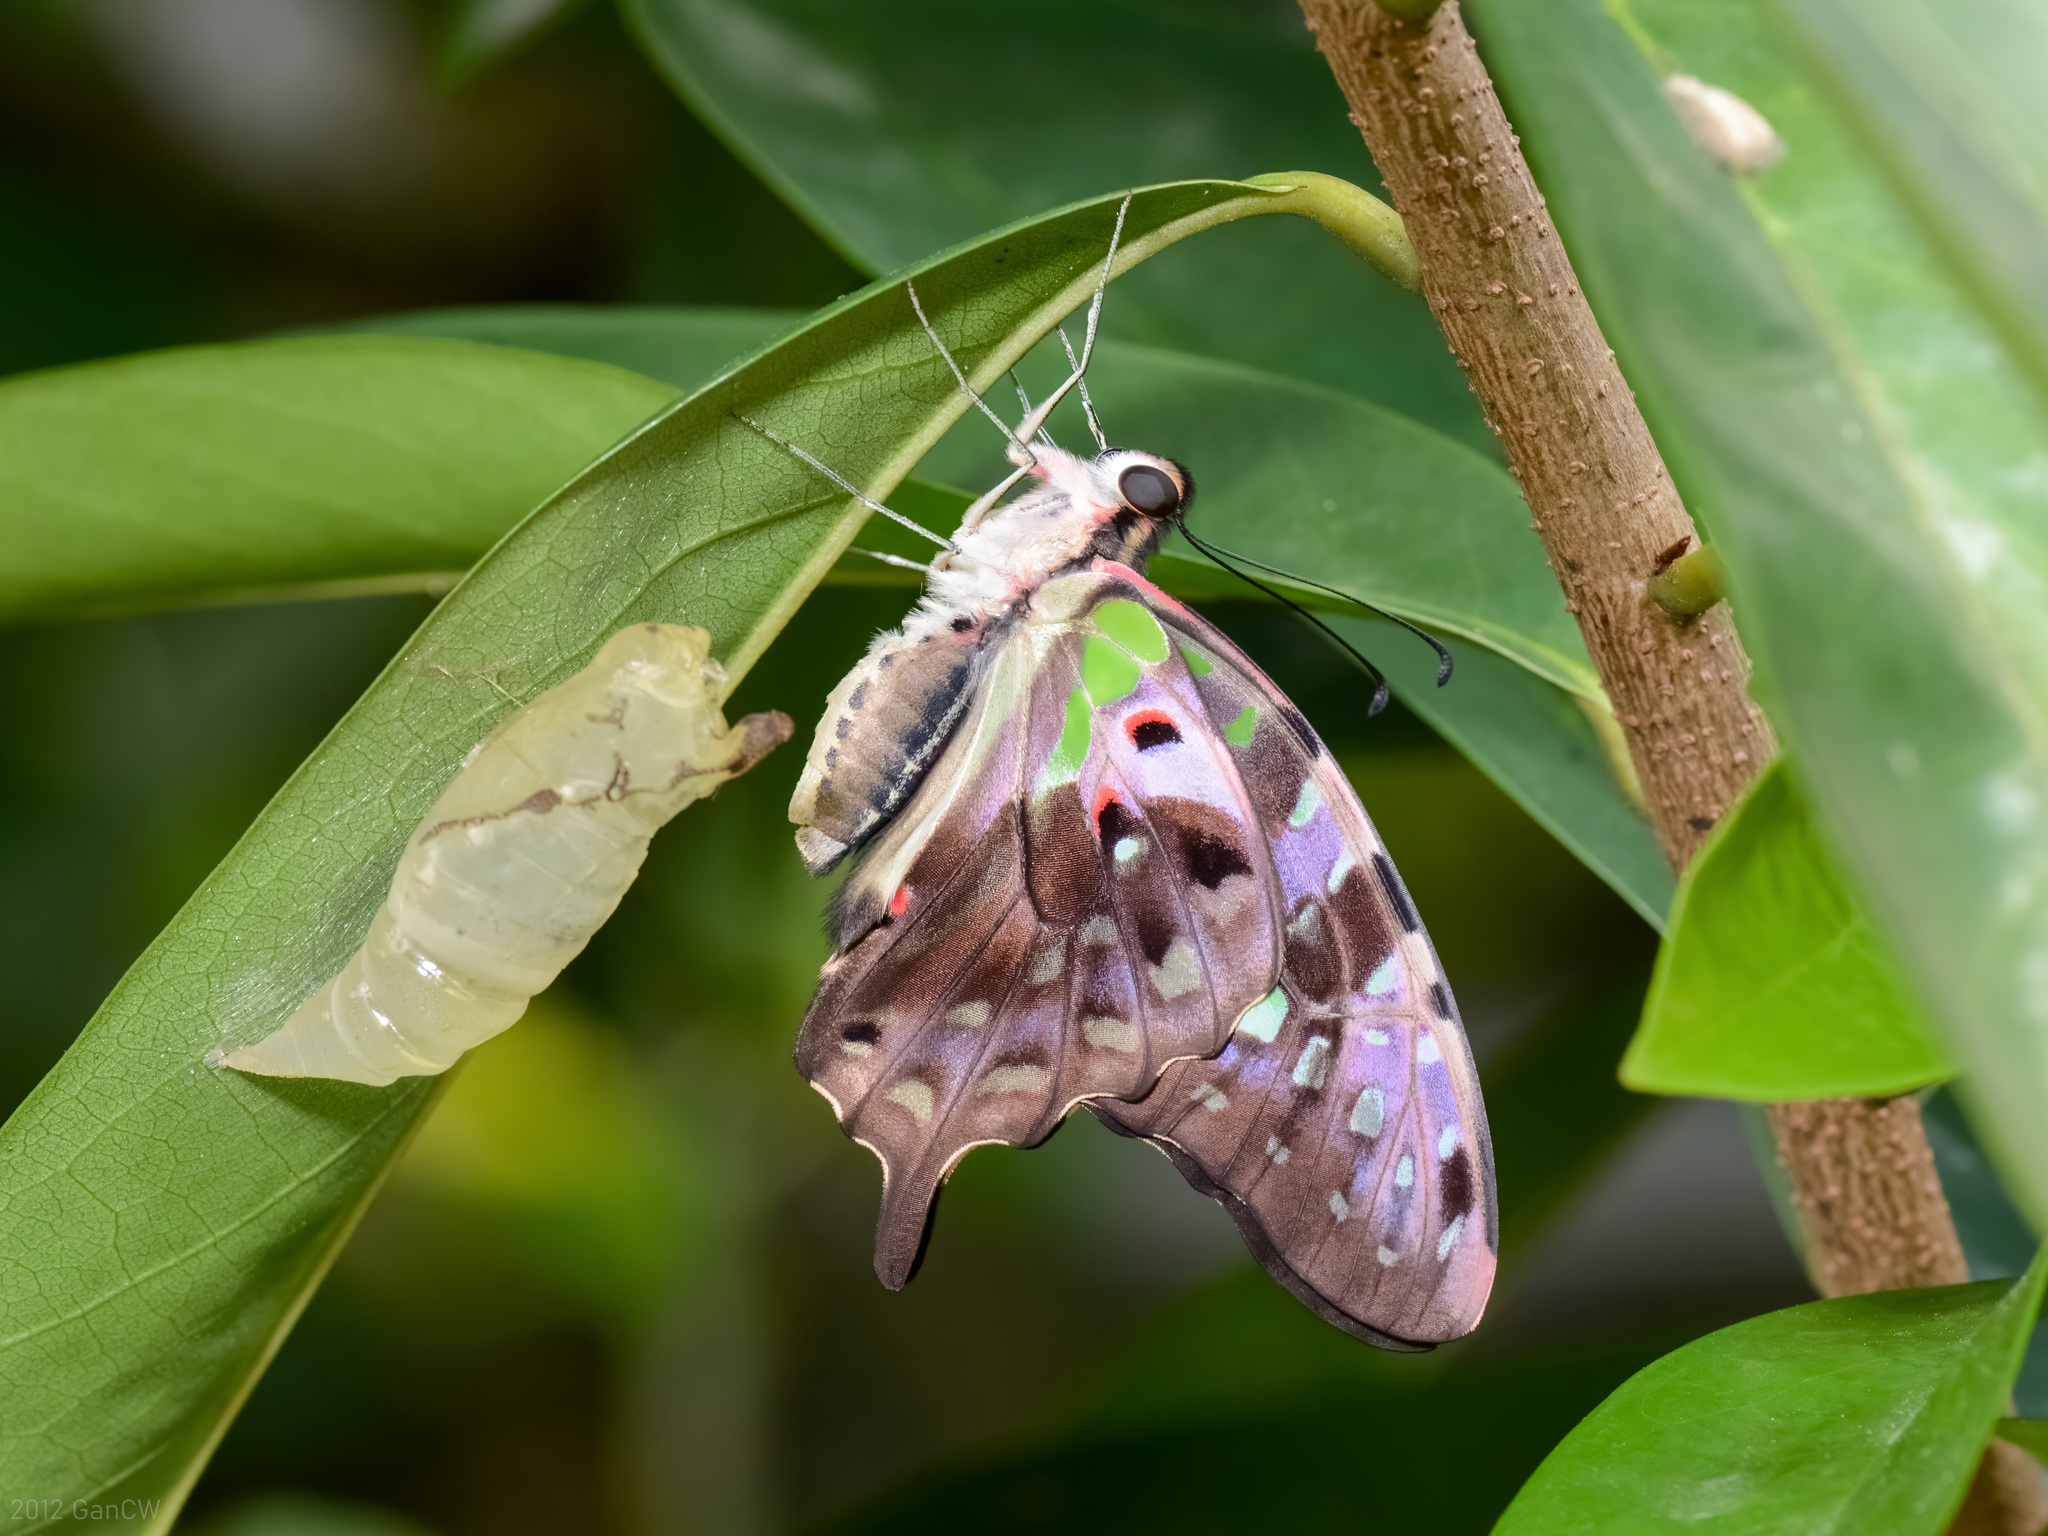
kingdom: Animalia
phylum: Arthropoda
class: Insecta
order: Lepidoptera
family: Papilionidae
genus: Graphium
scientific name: Graphium agamemnon
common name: Tailed jay
